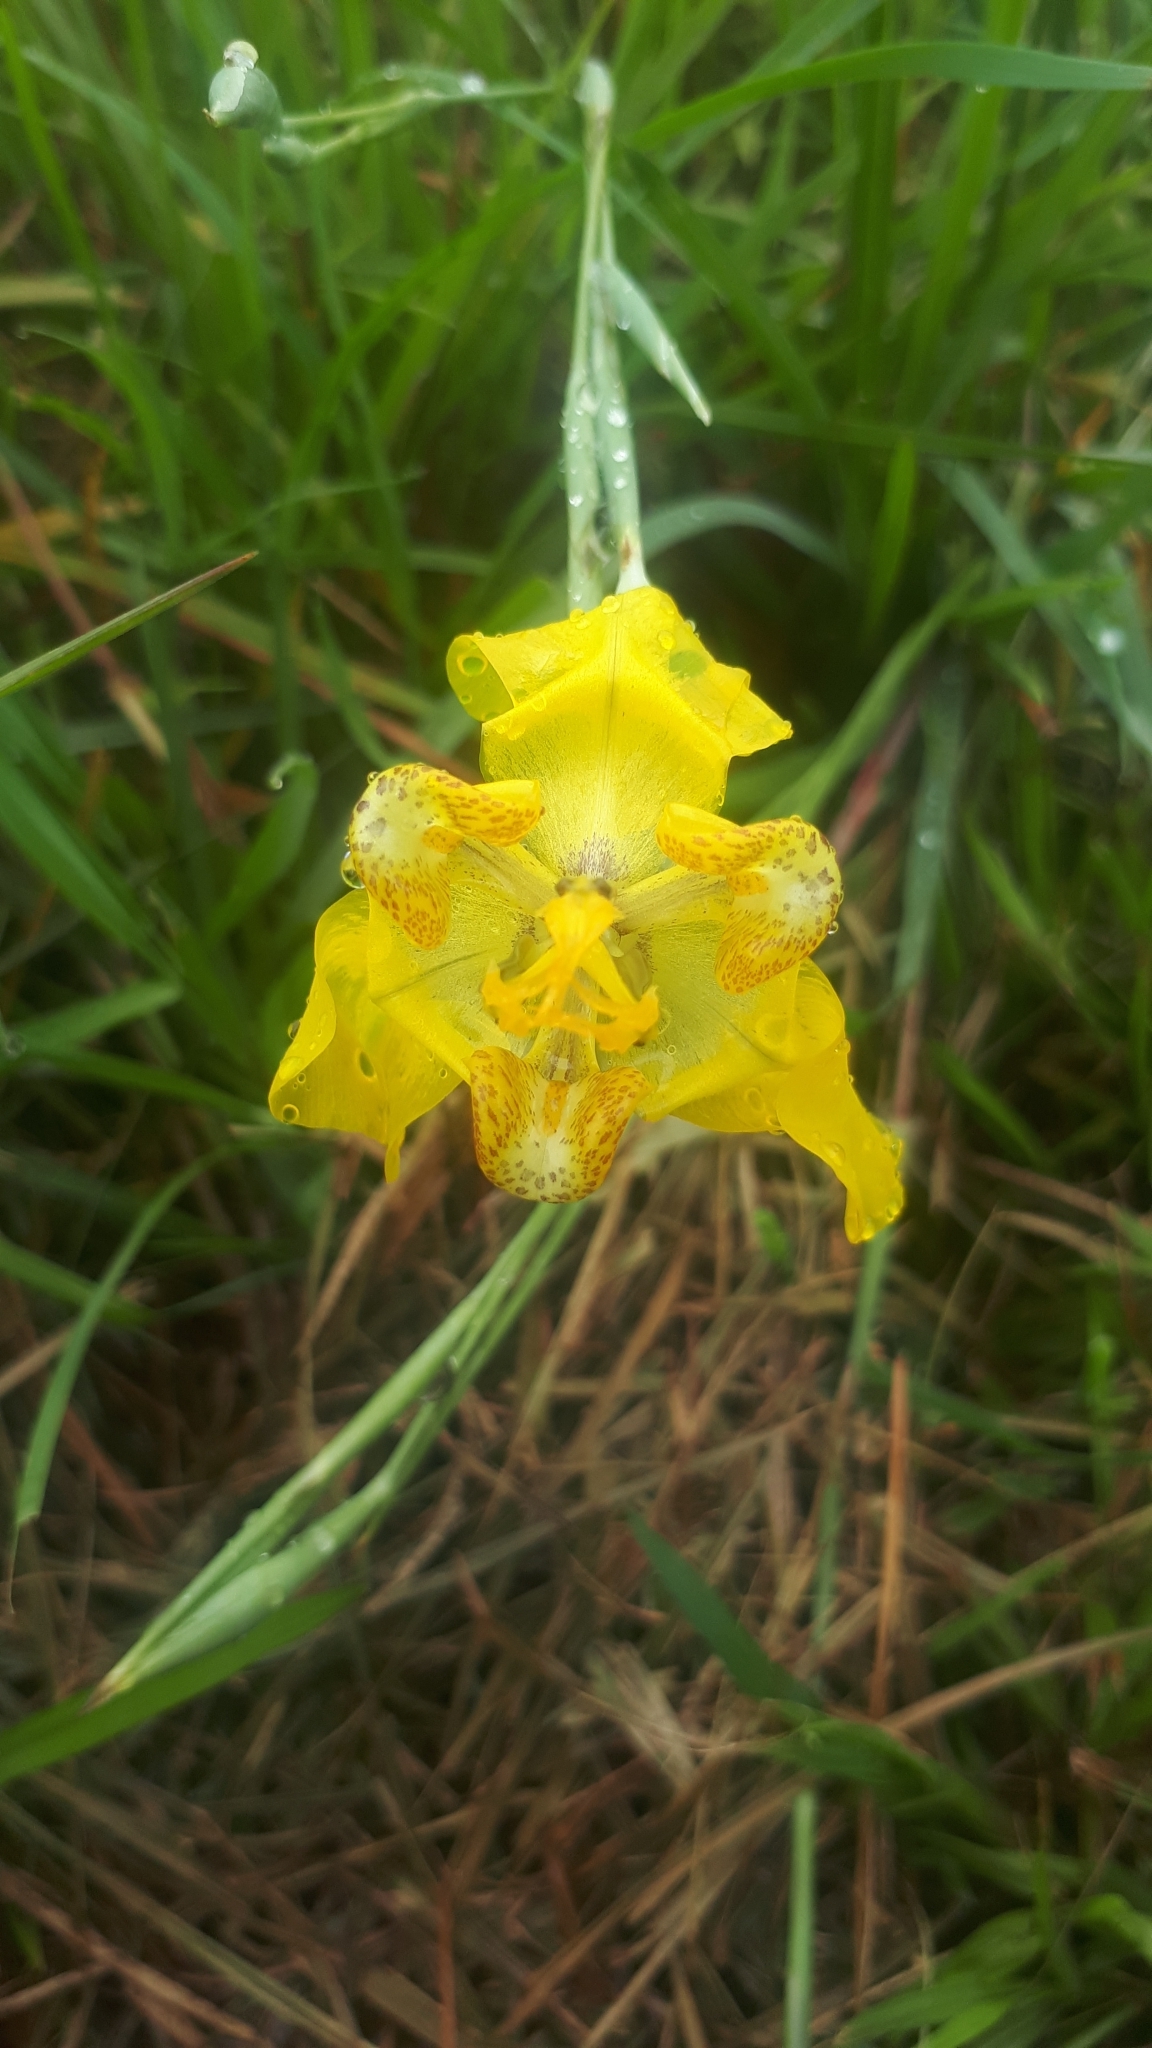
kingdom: Plantae
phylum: Tracheophyta
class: Liliopsida
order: Asparagales
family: Iridaceae
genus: Cypella
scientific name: Cypella trimontina
